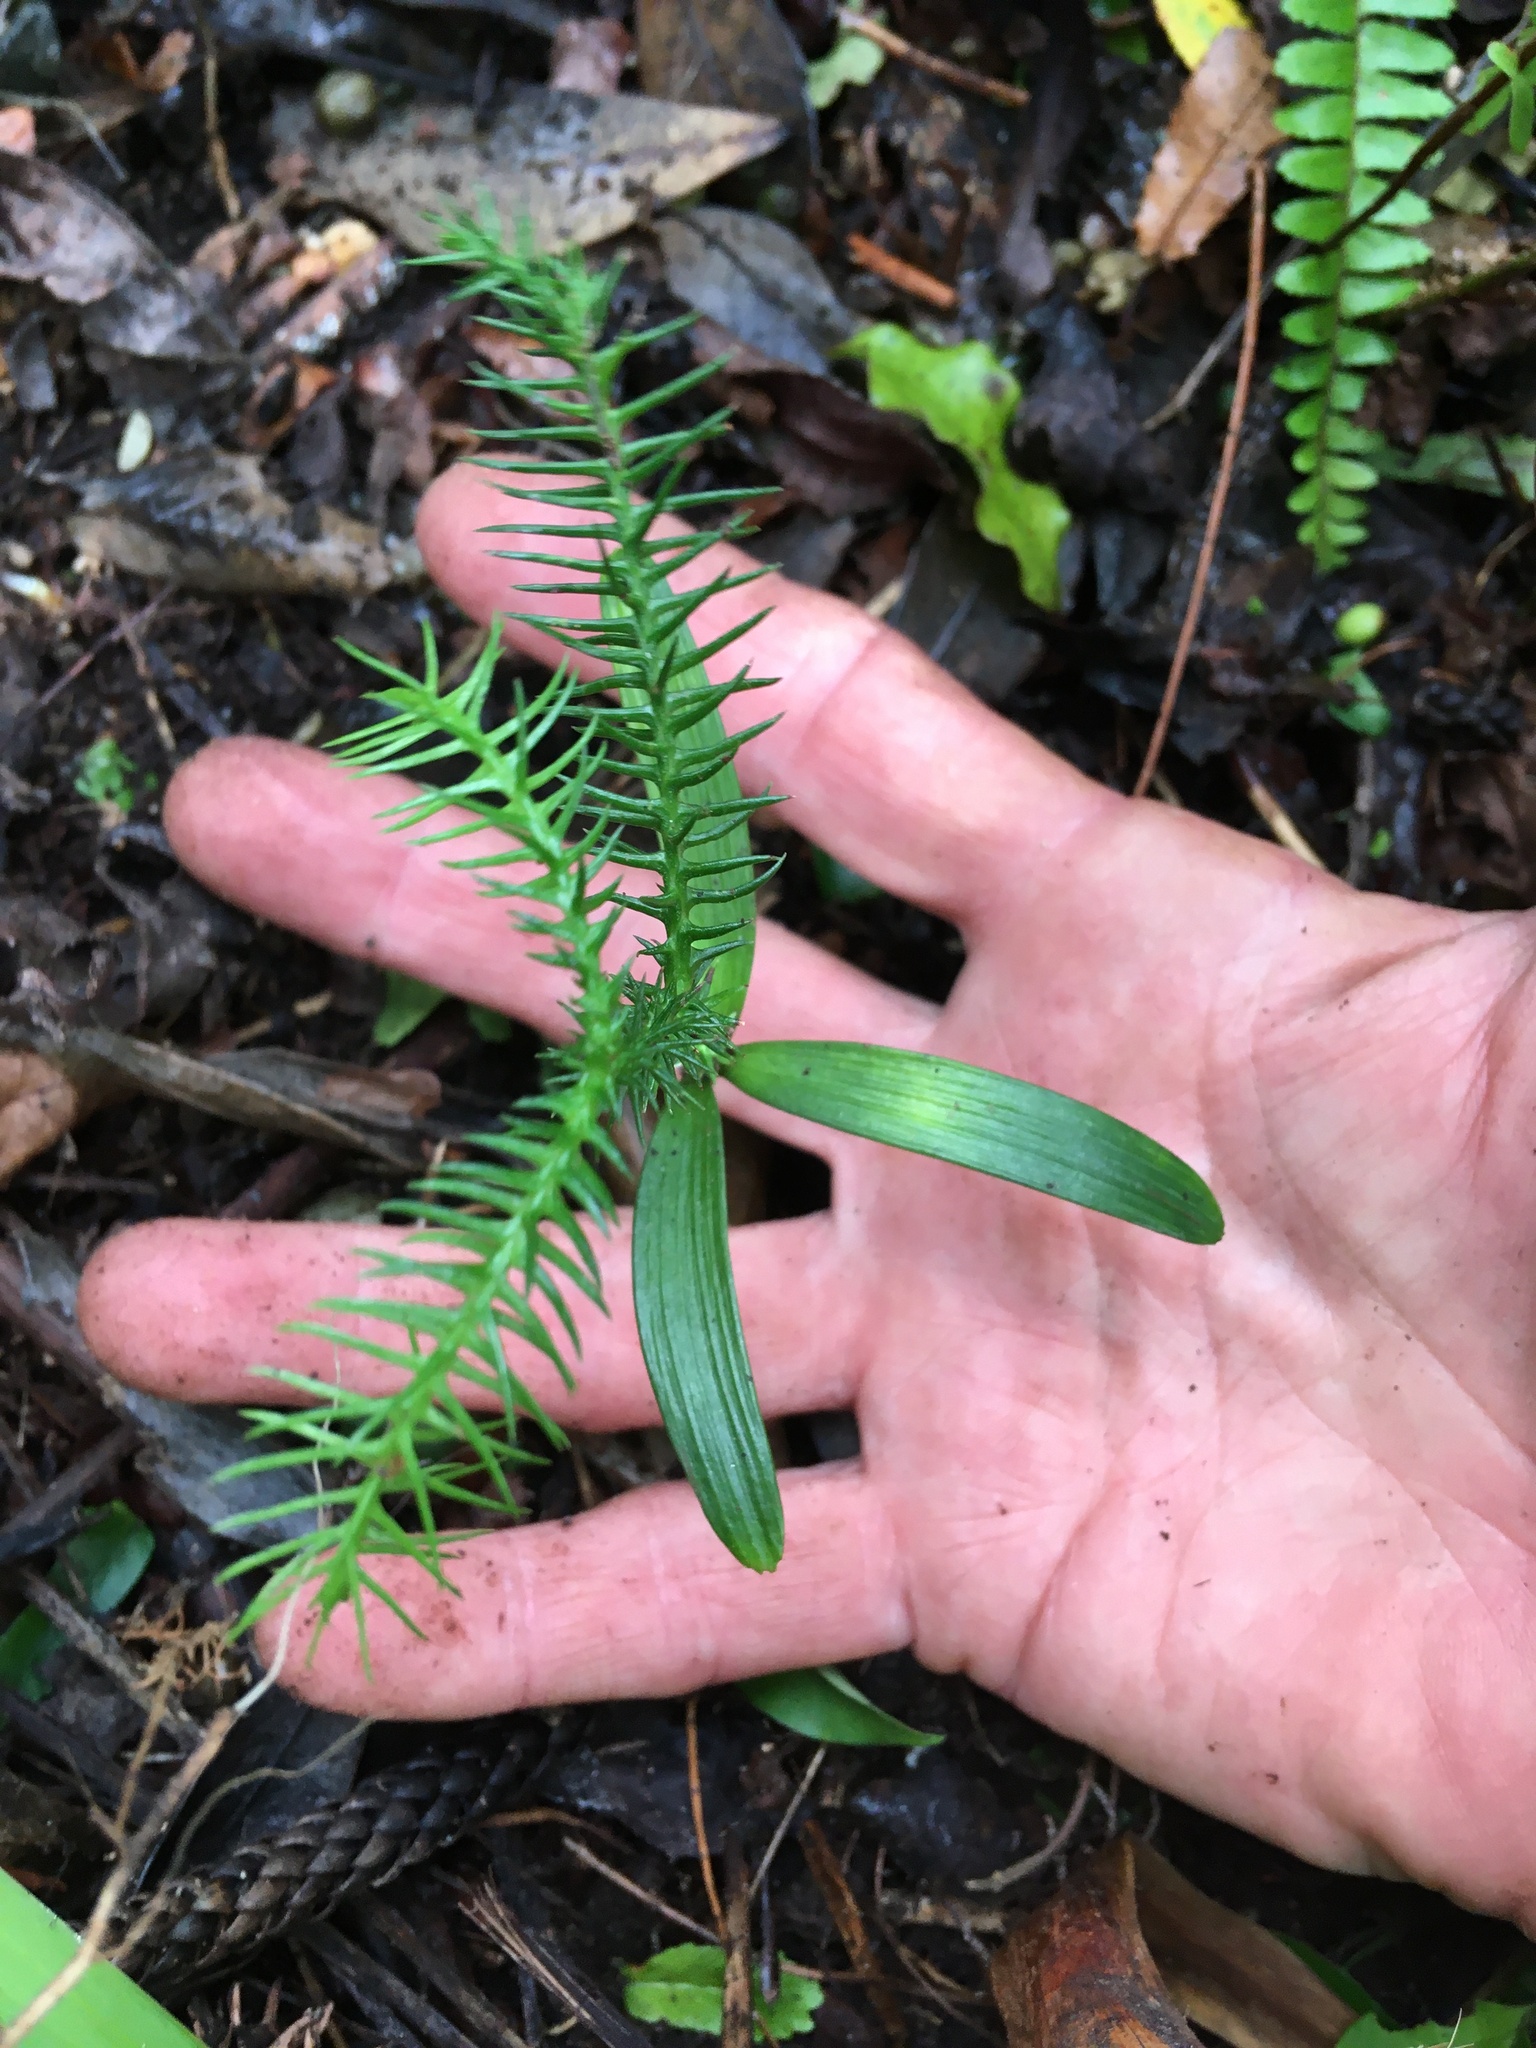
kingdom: Plantae
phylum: Tracheophyta
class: Pinopsida
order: Pinales
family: Araucariaceae
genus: Araucaria
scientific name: Araucaria heterophylla
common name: Norfolk island pine
